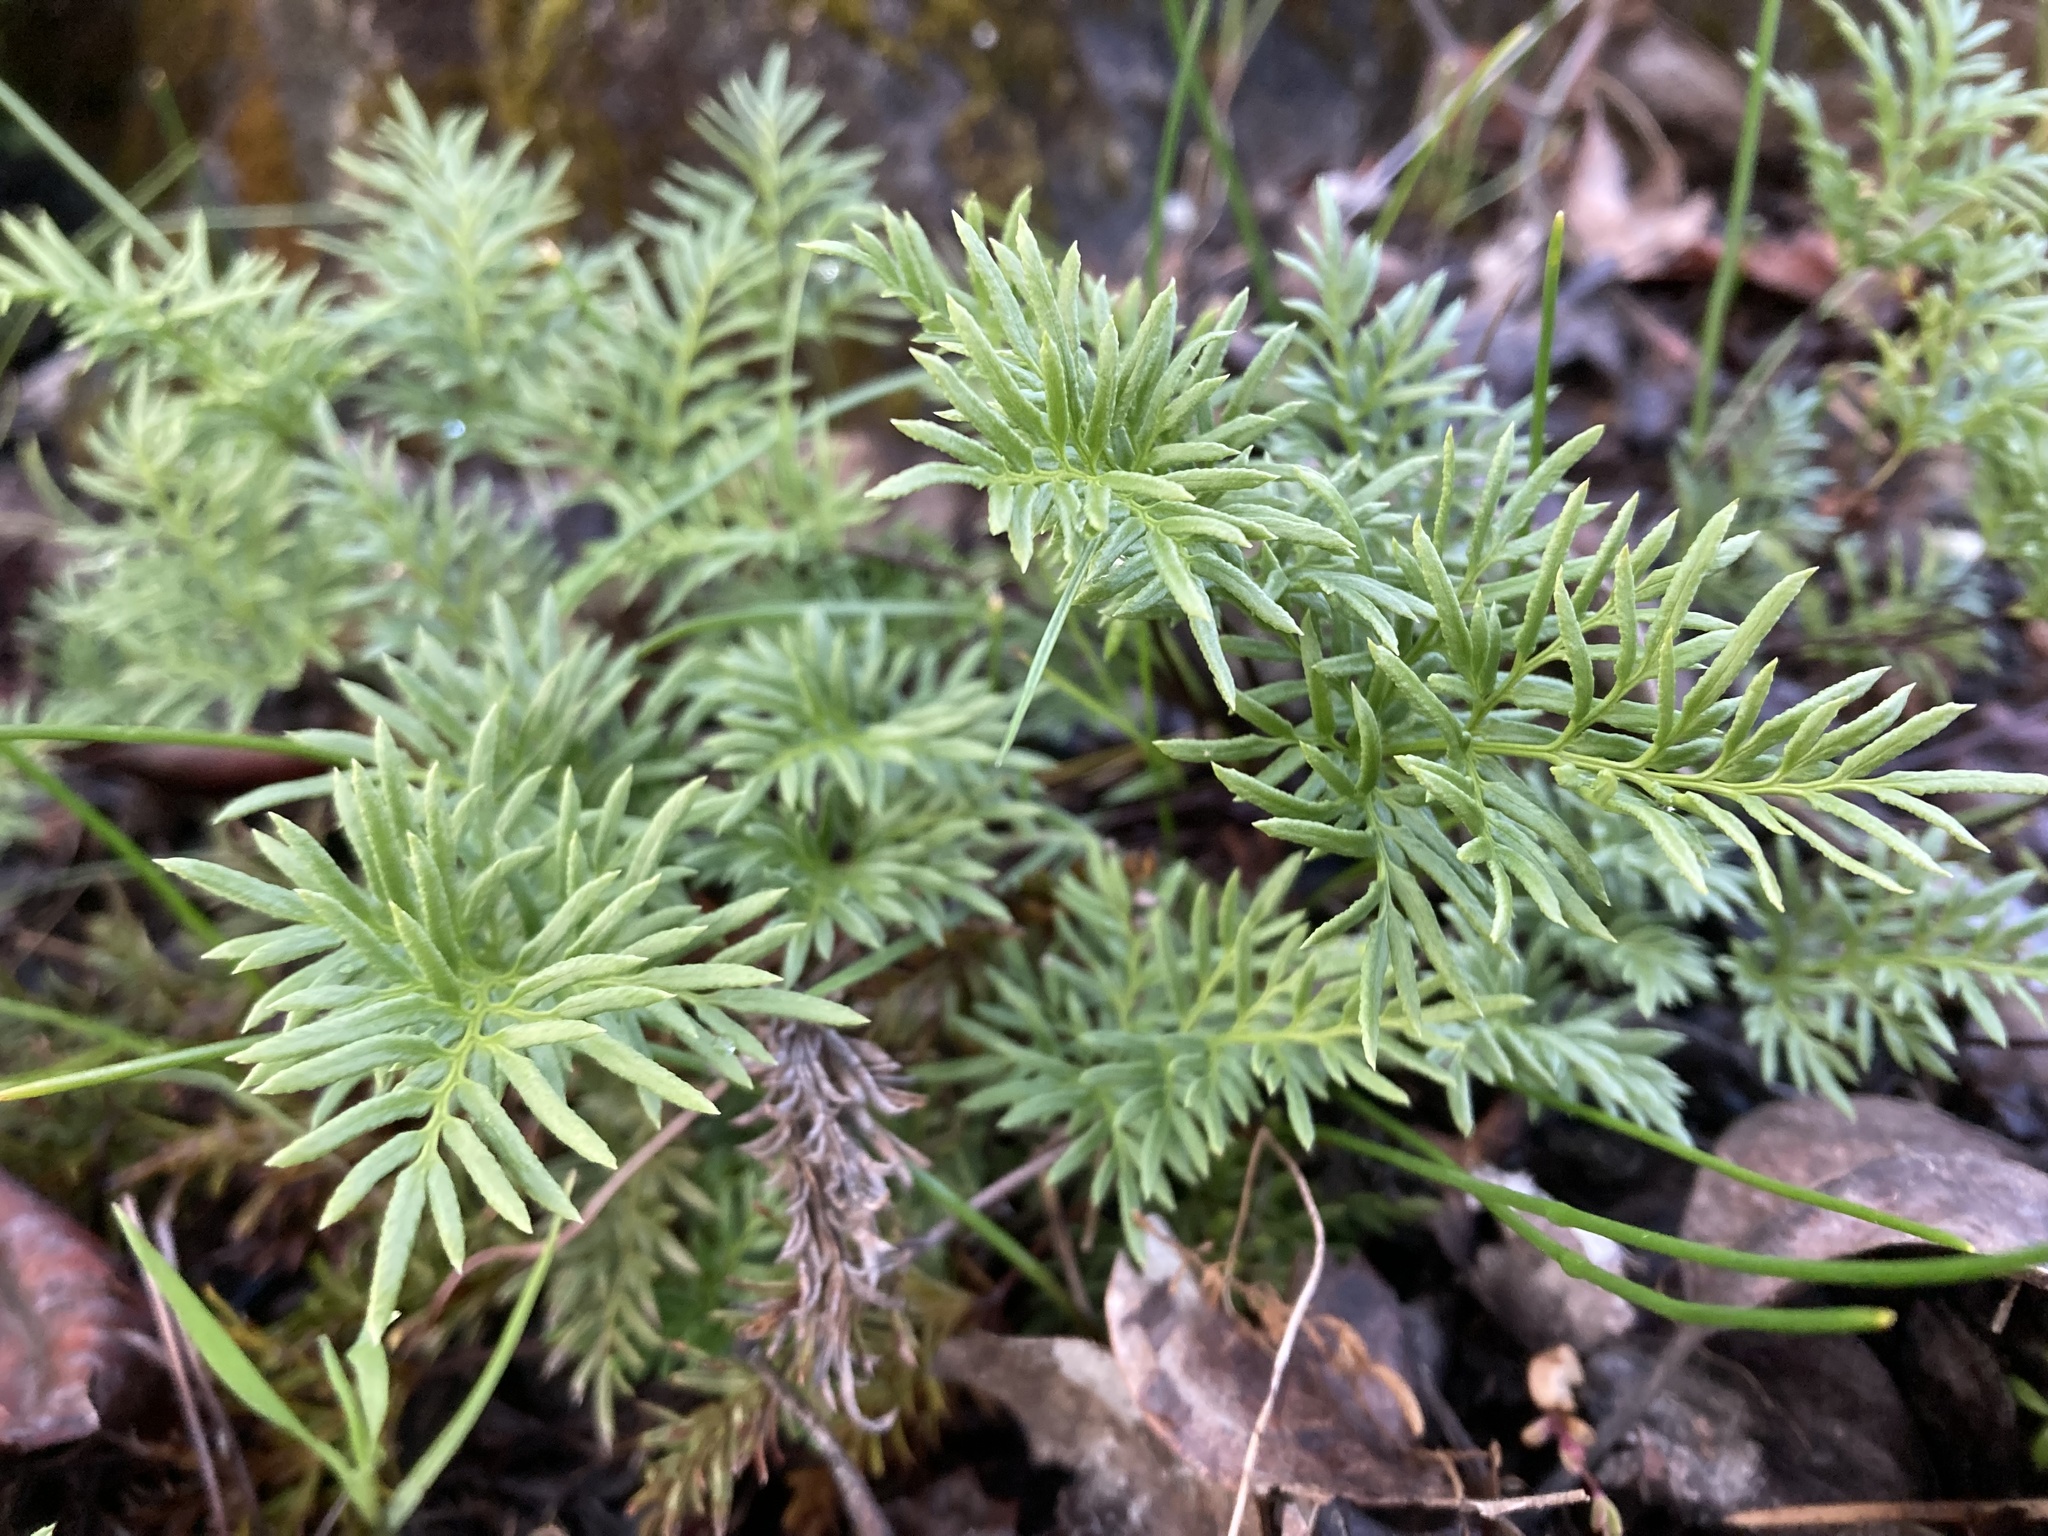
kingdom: Plantae
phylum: Tracheophyta
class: Polypodiopsida
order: Polypodiales
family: Pteridaceae
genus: Aspidotis
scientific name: Aspidotis densa
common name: Indian's dream
